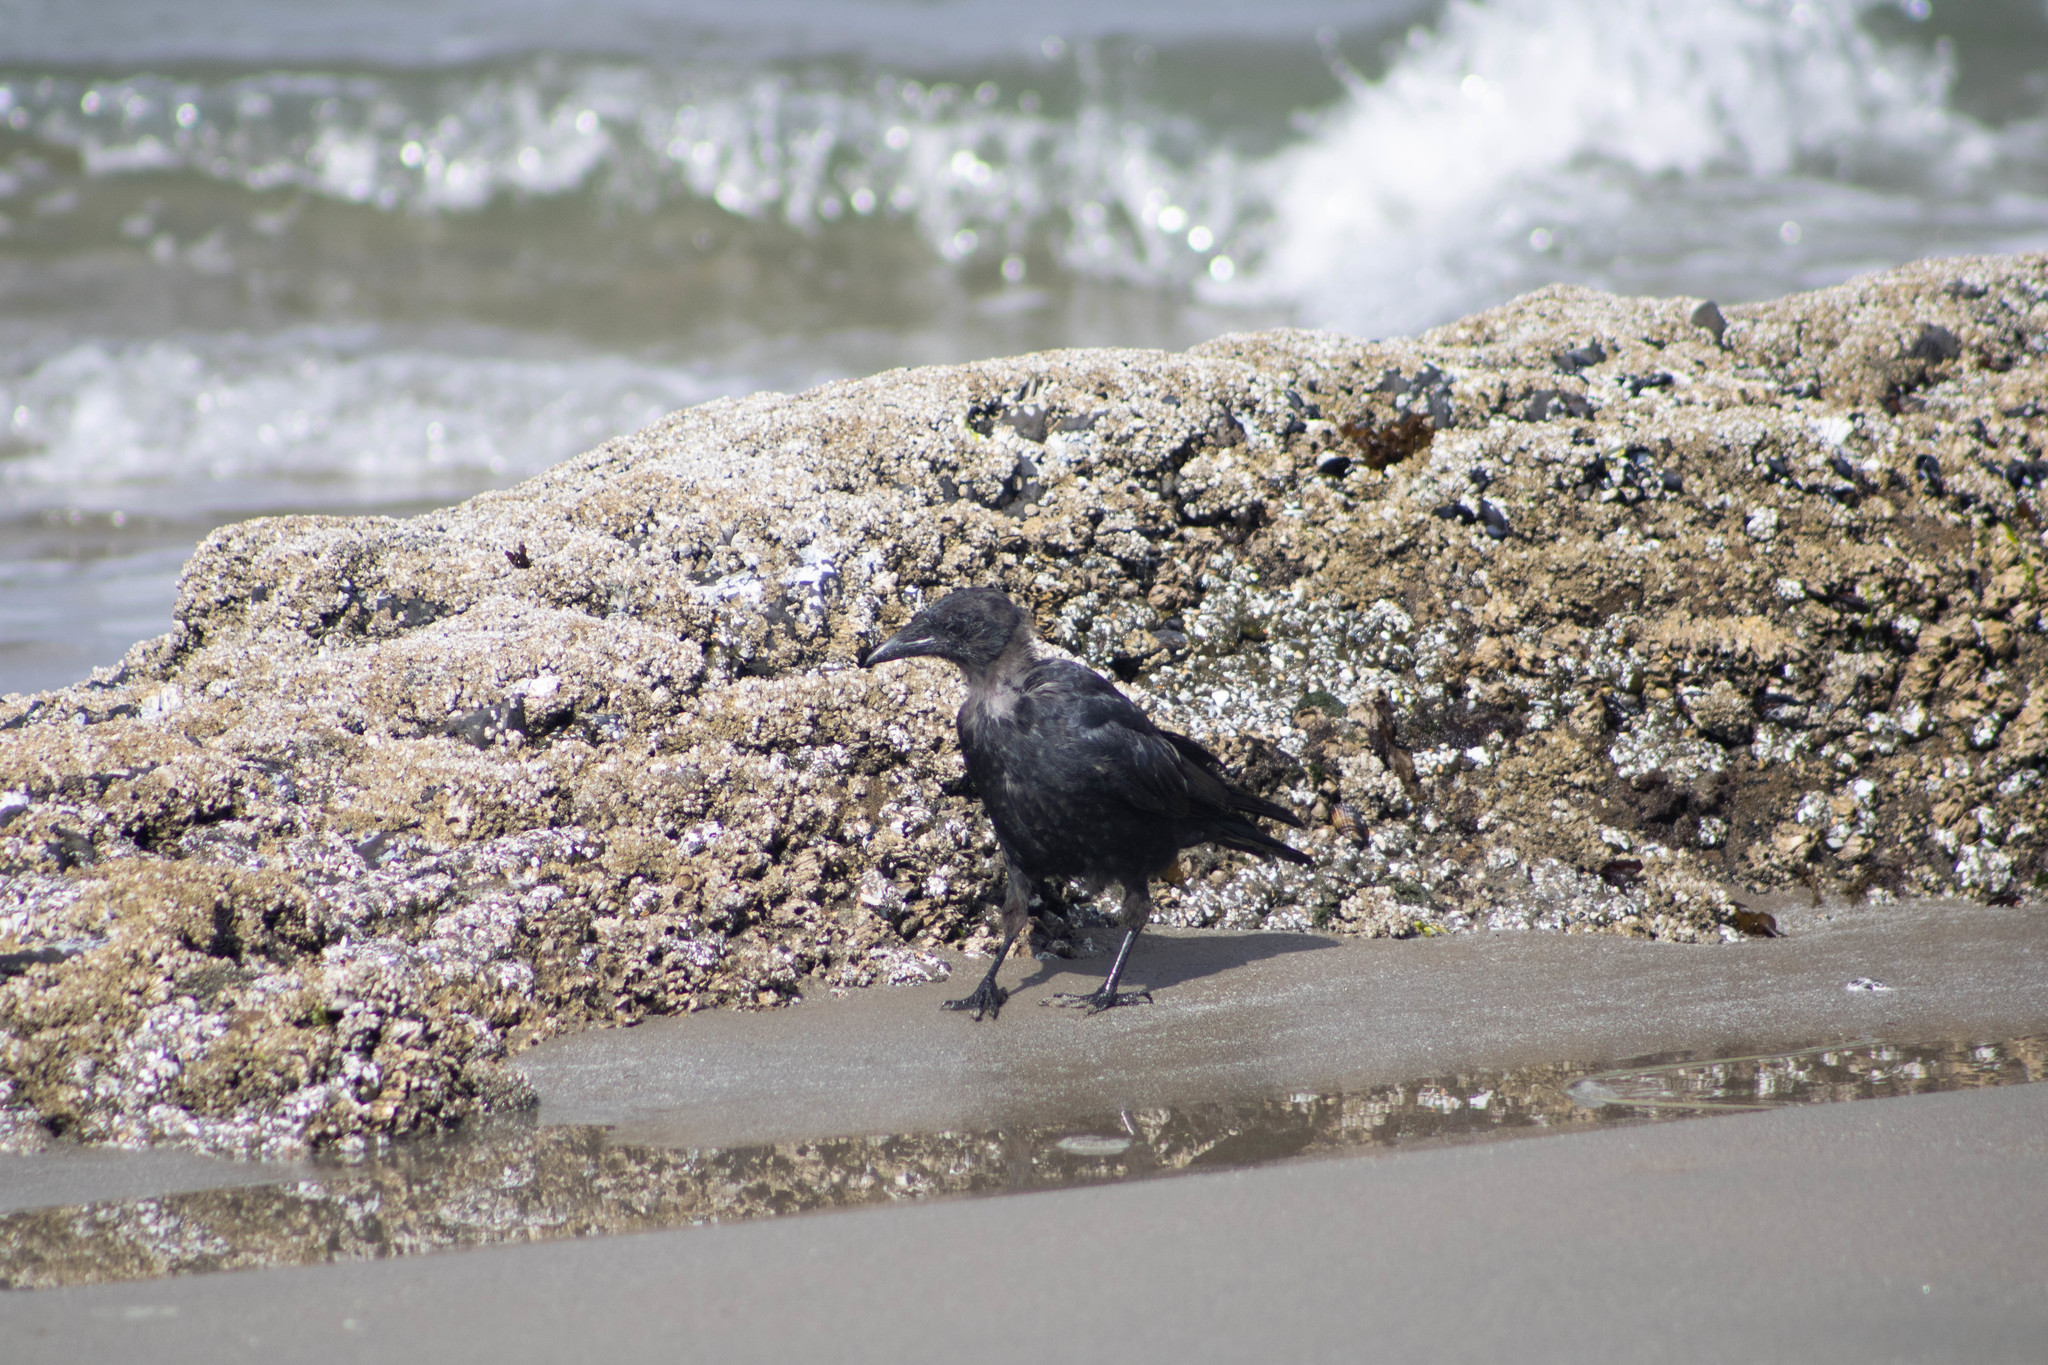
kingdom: Animalia
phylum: Chordata
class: Aves
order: Passeriformes
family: Corvidae
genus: Corvus
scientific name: Corvus brachyrhynchos
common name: American crow
